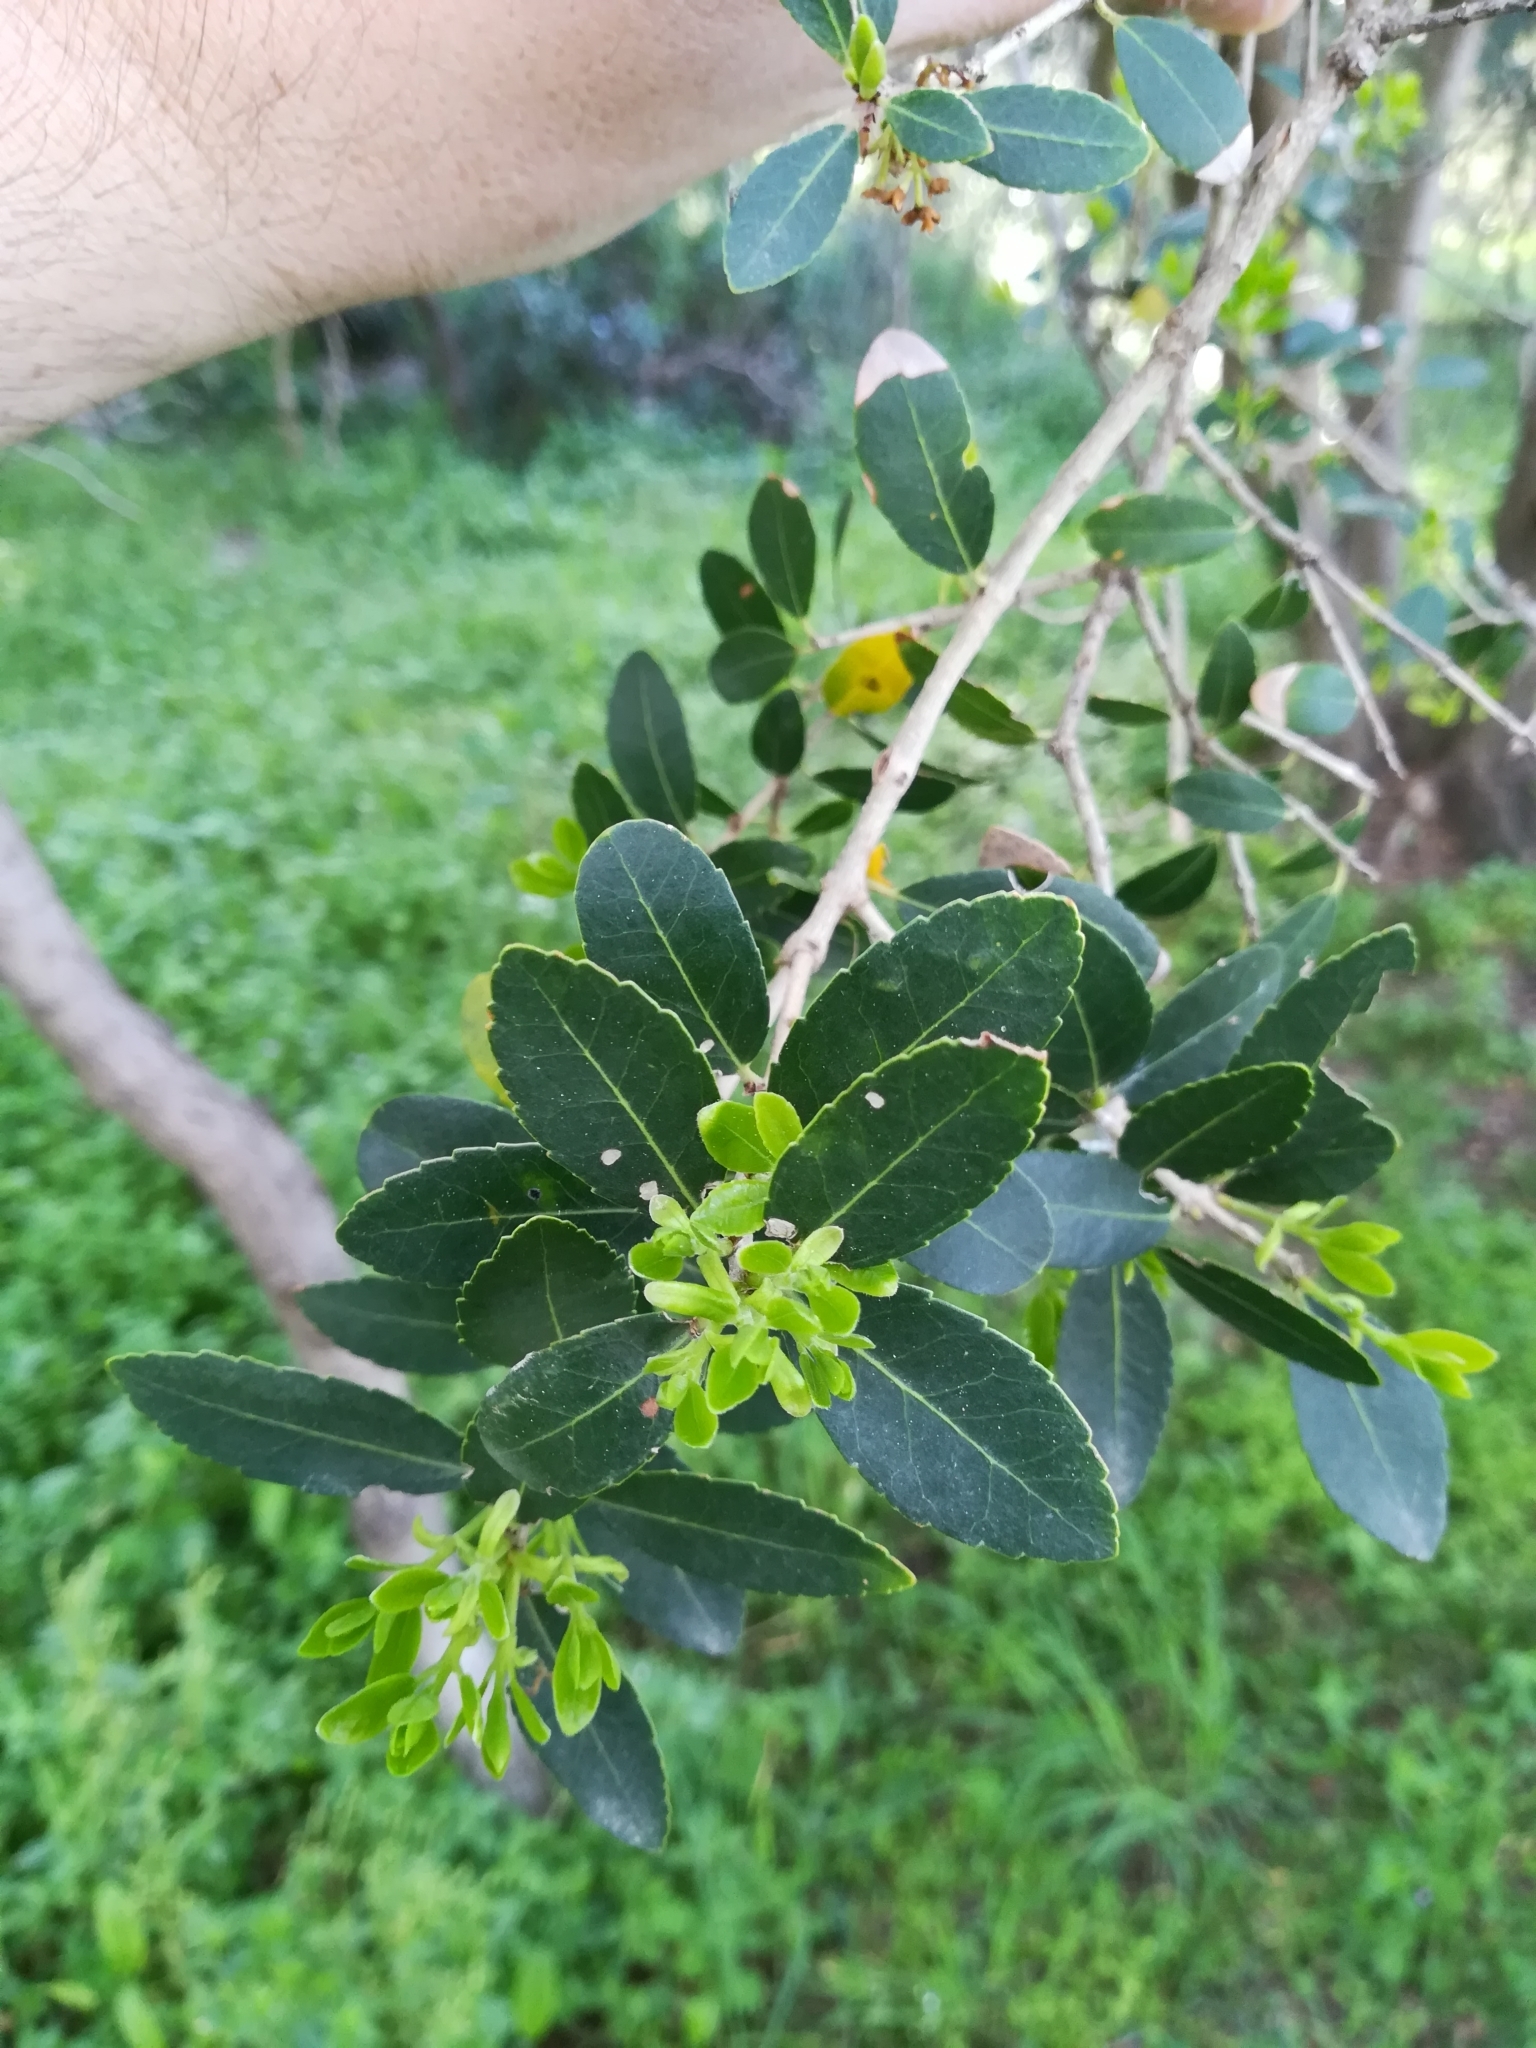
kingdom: Plantae
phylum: Tracheophyta
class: Magnoliopsida
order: Lamiales
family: Oleaceae
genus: Phillyrea
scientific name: Phillyrea latifolia
